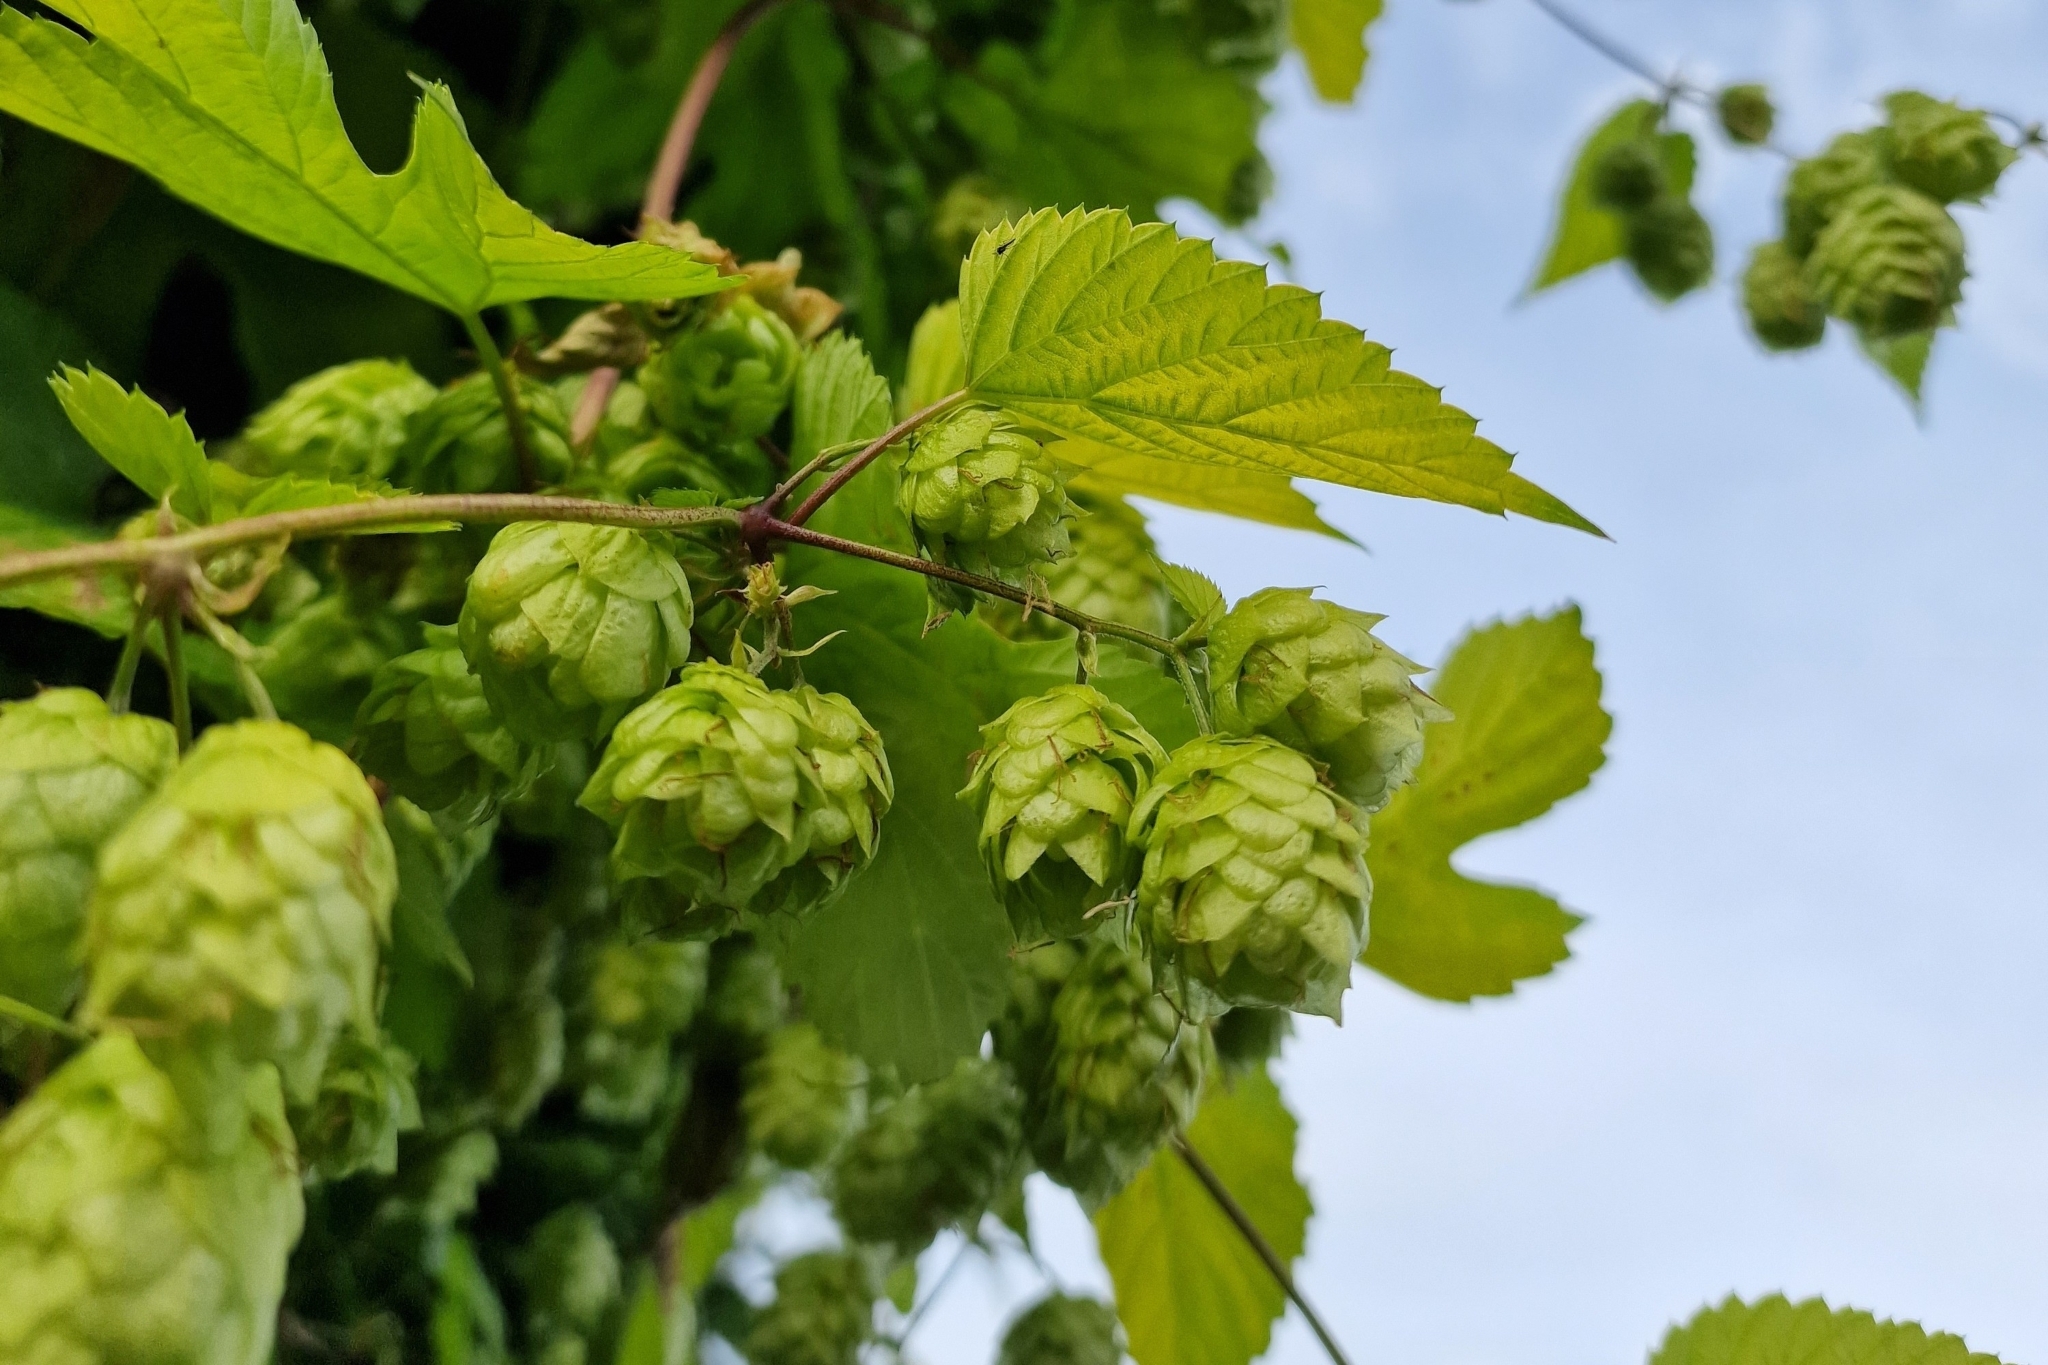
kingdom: Plantae
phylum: Tracheophyta
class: Magnoliopsida
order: Rosales
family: Cannabaceae
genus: Humulus
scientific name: Humulus lupulus
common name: Hop
